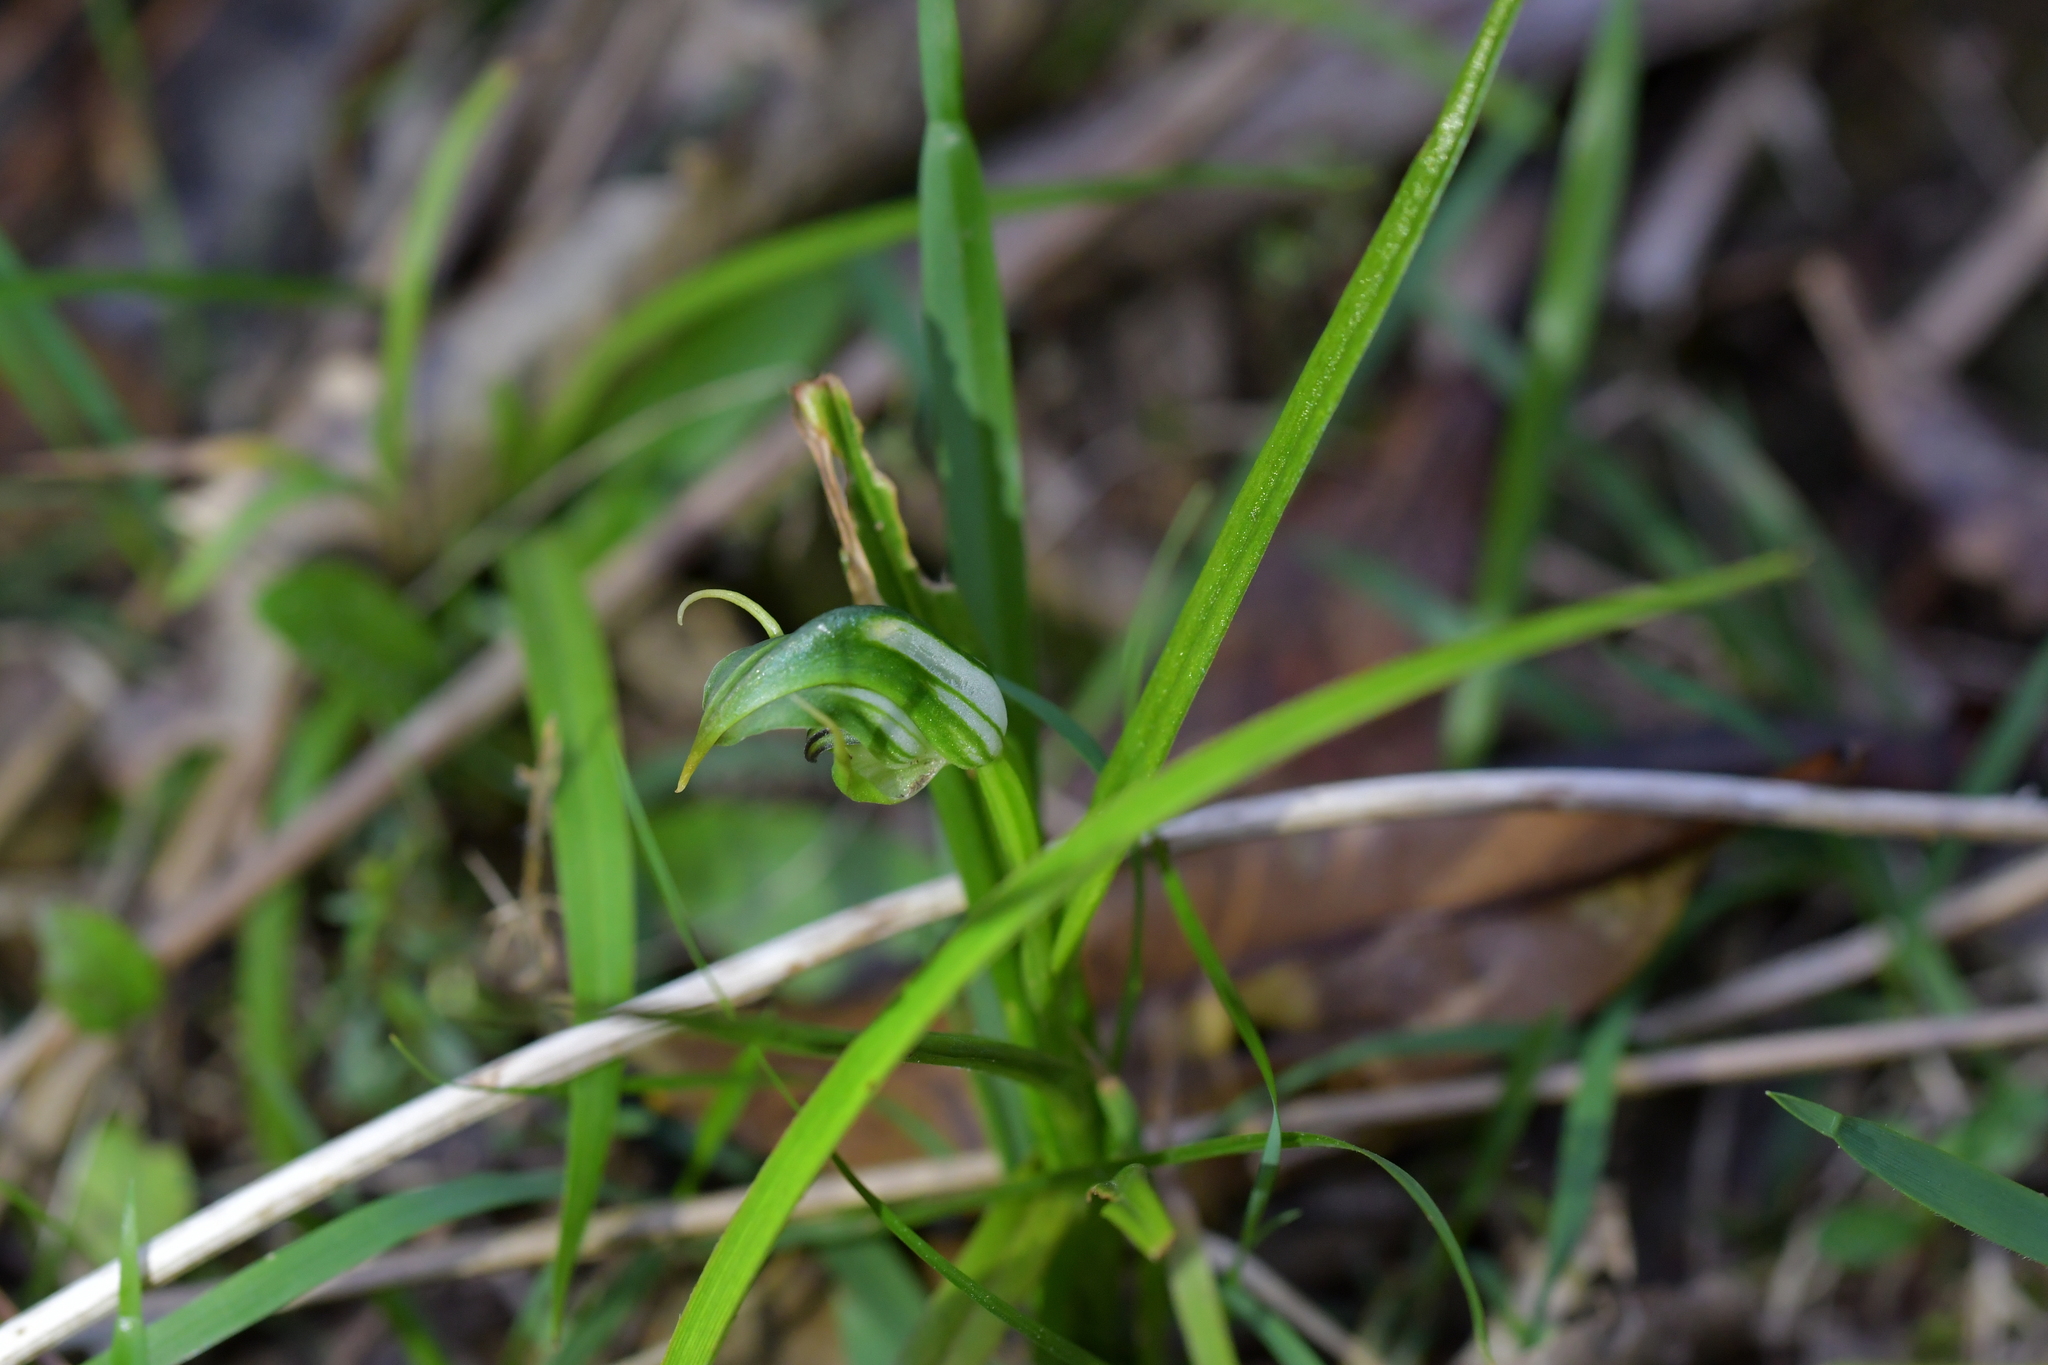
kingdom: Plantae
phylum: Tracheophyta
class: Liliopsida
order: Asparagales
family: Orchidaceae
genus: Pterostylis
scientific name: Pterostylis graminea
